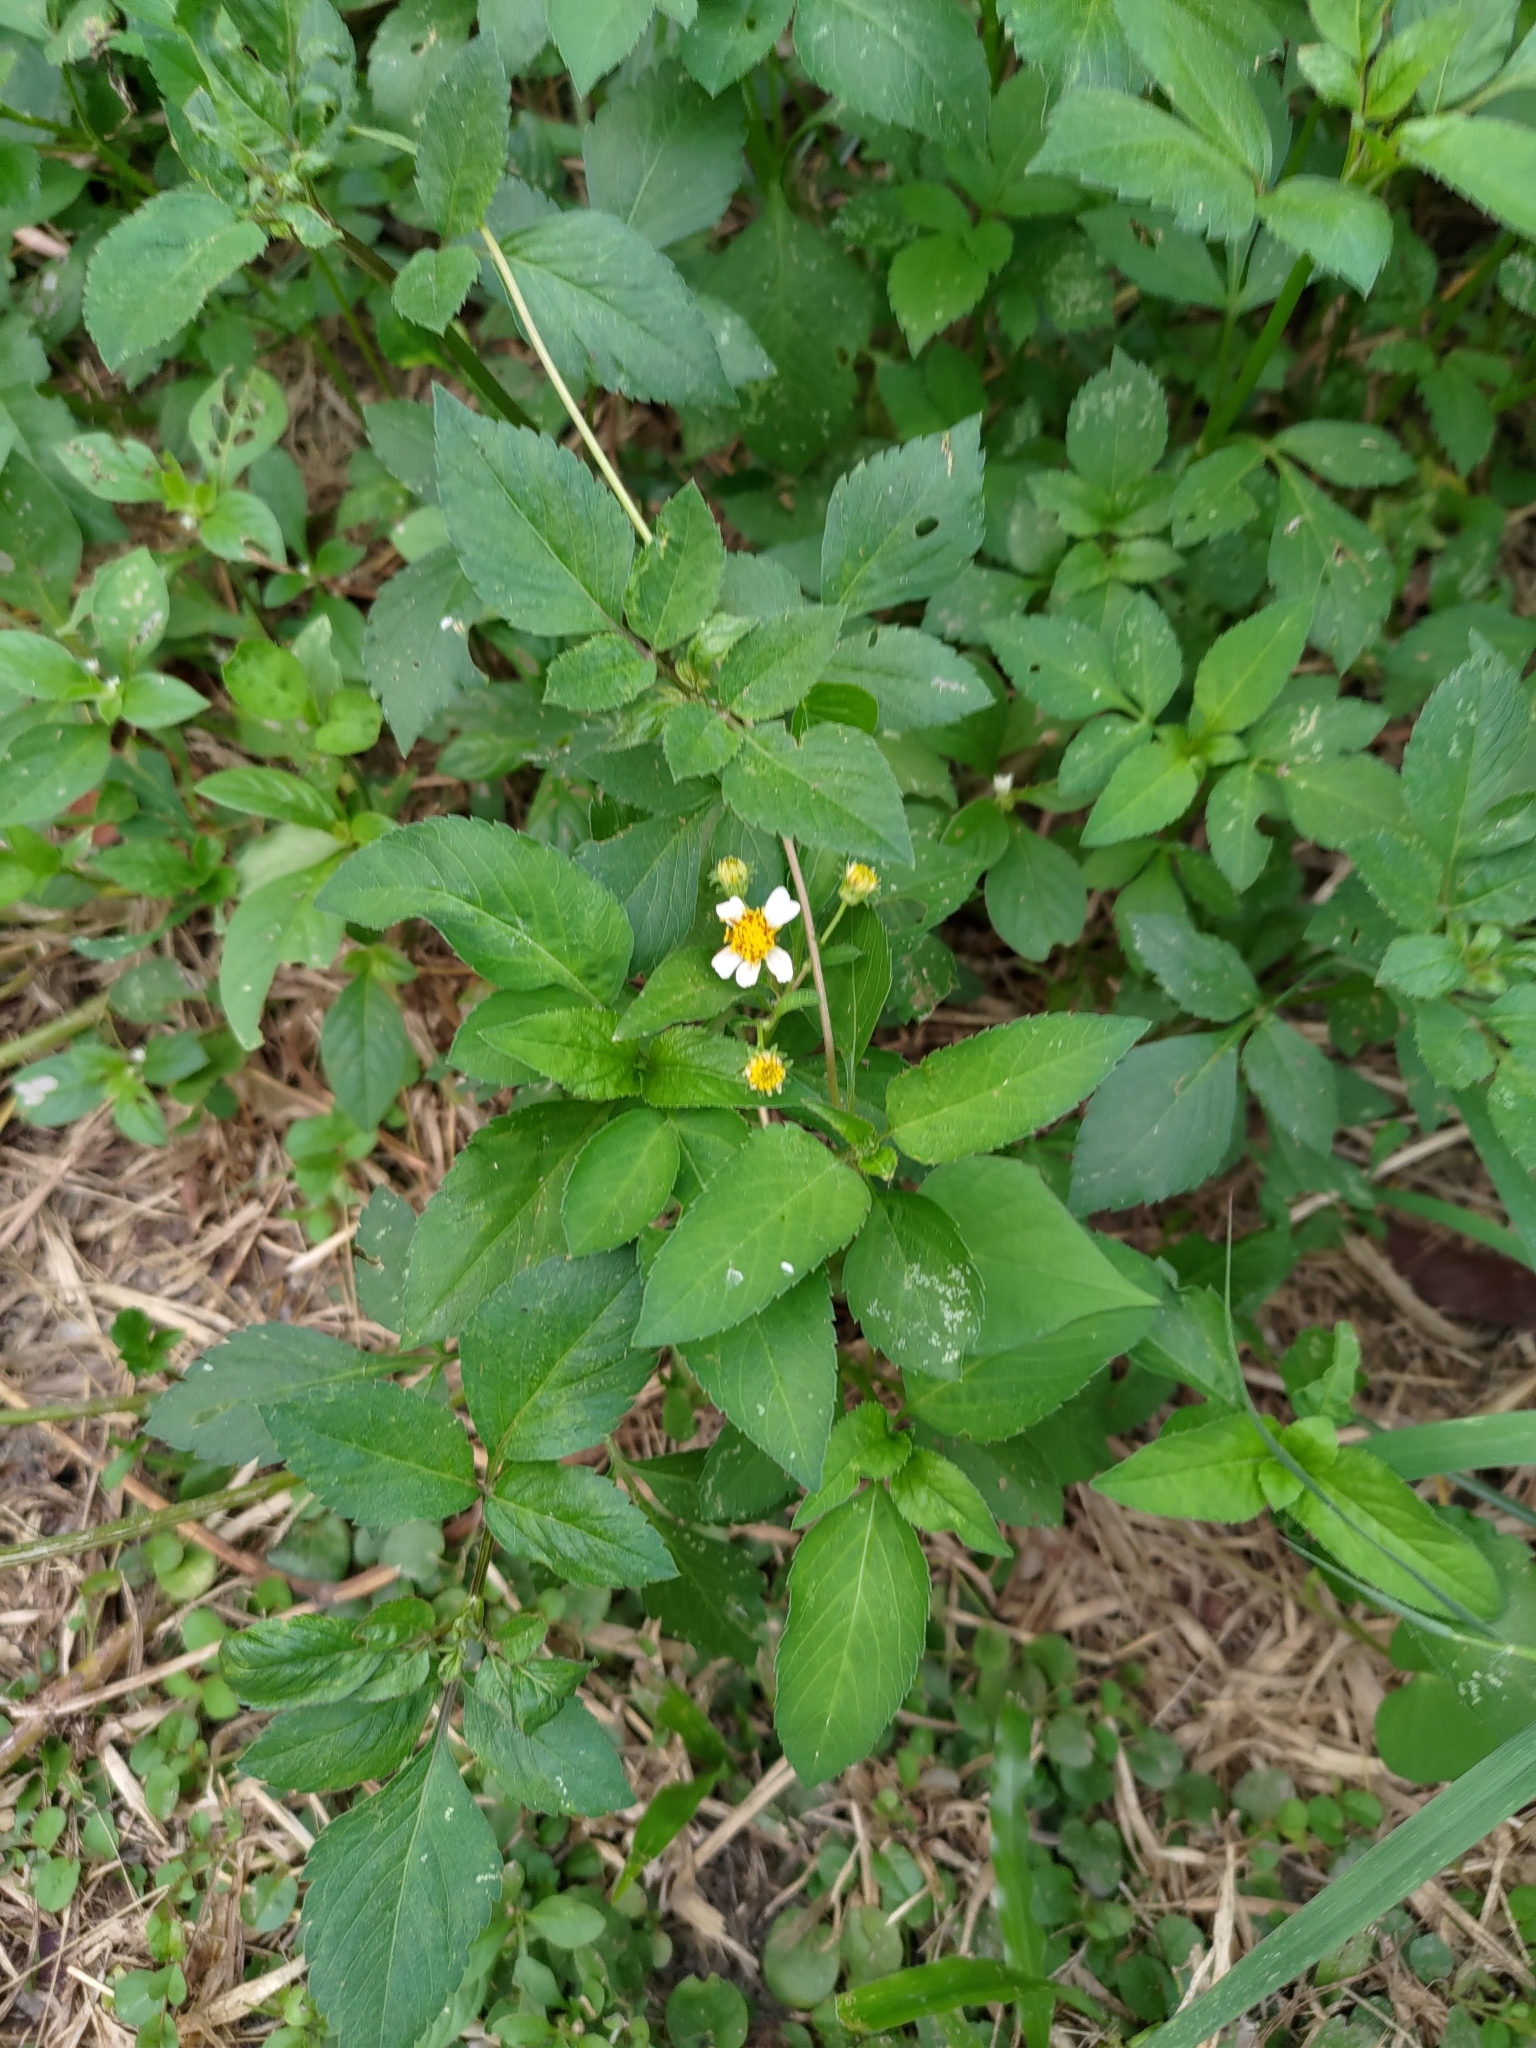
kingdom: Plantae
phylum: Tracheophyta
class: Magnoliopsida
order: Asterales
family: Asteraceae
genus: Bidens
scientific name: Bidens alba
